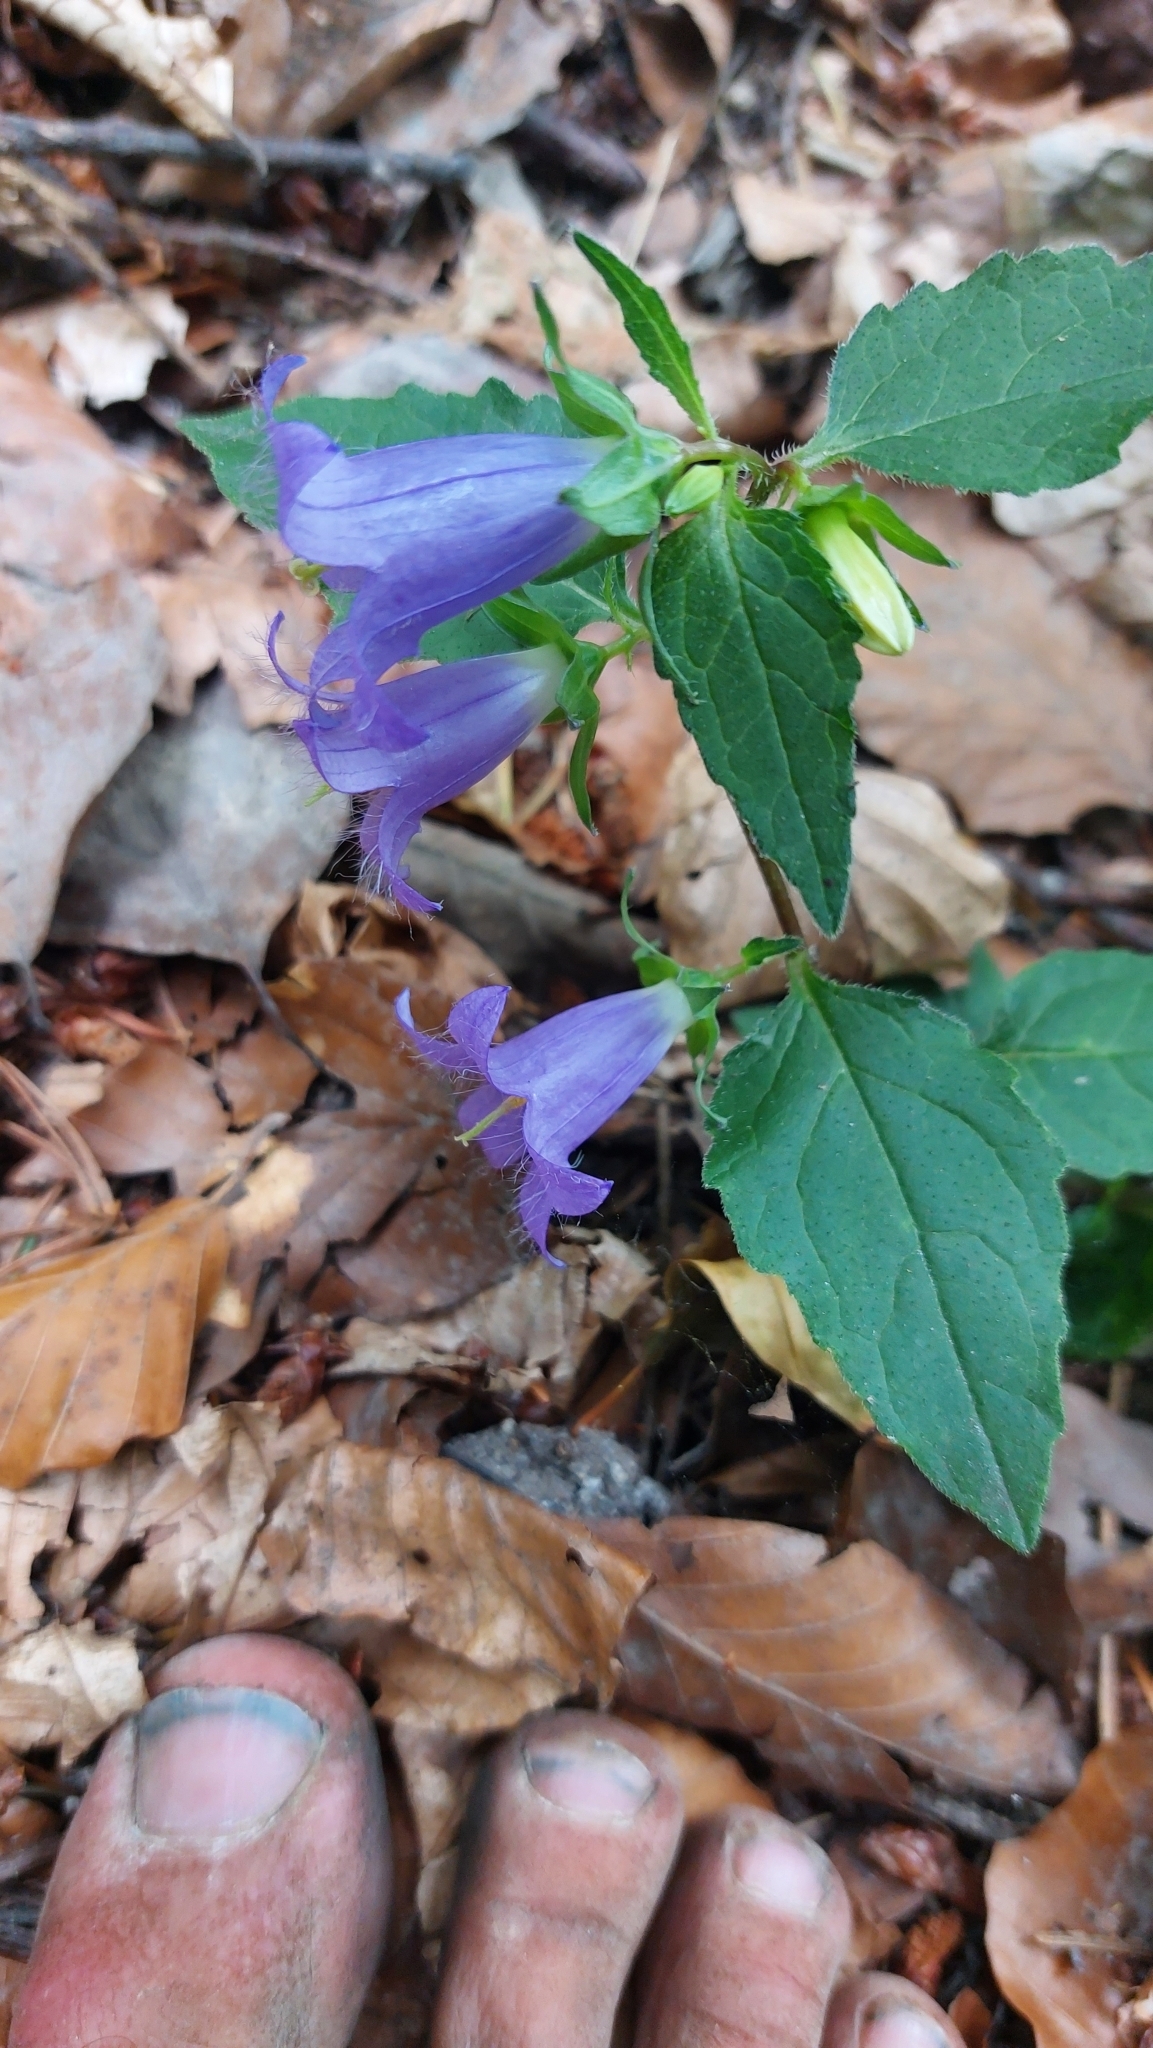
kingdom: Plantae
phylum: Tracheophyta
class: Magnoliopsida
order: Asterales
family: Campanulaceae
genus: Campanula
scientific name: Campanula trachelium
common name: Nettle-leaved bellflower
